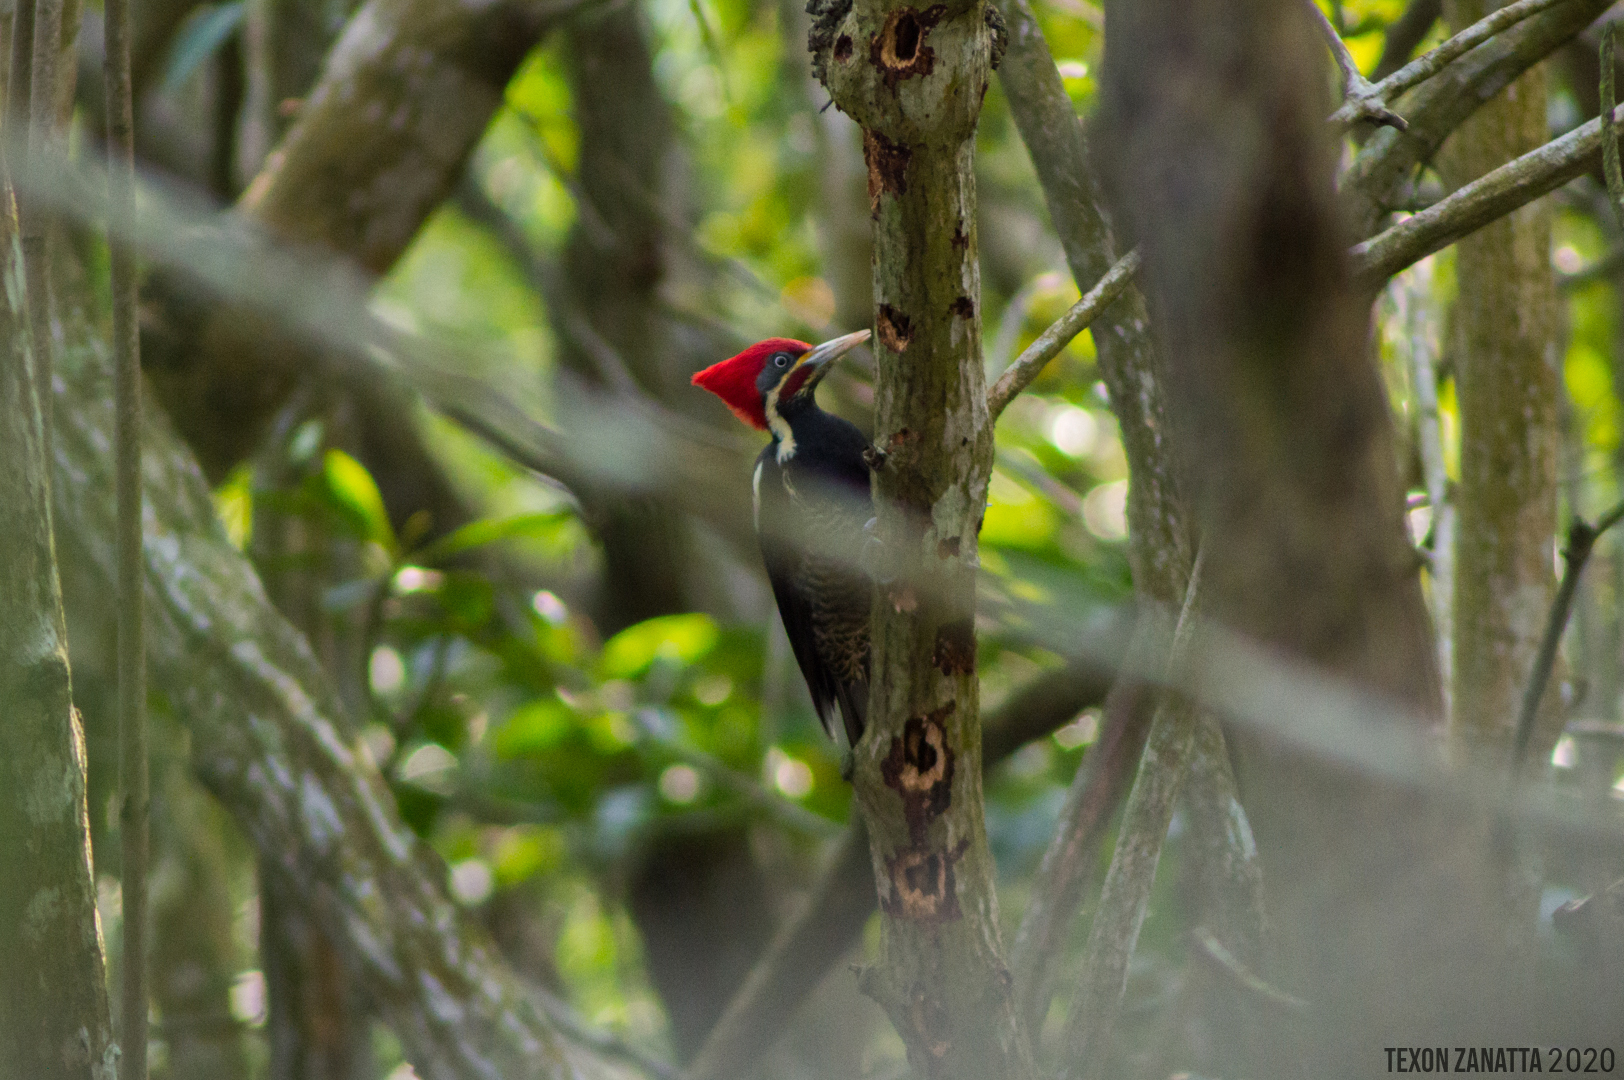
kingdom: Animalia
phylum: Chordata
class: Aves
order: Piciformes
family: Picidae
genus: Dryocopus
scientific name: Dryocopus lineatus
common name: Lineated woodpecker
